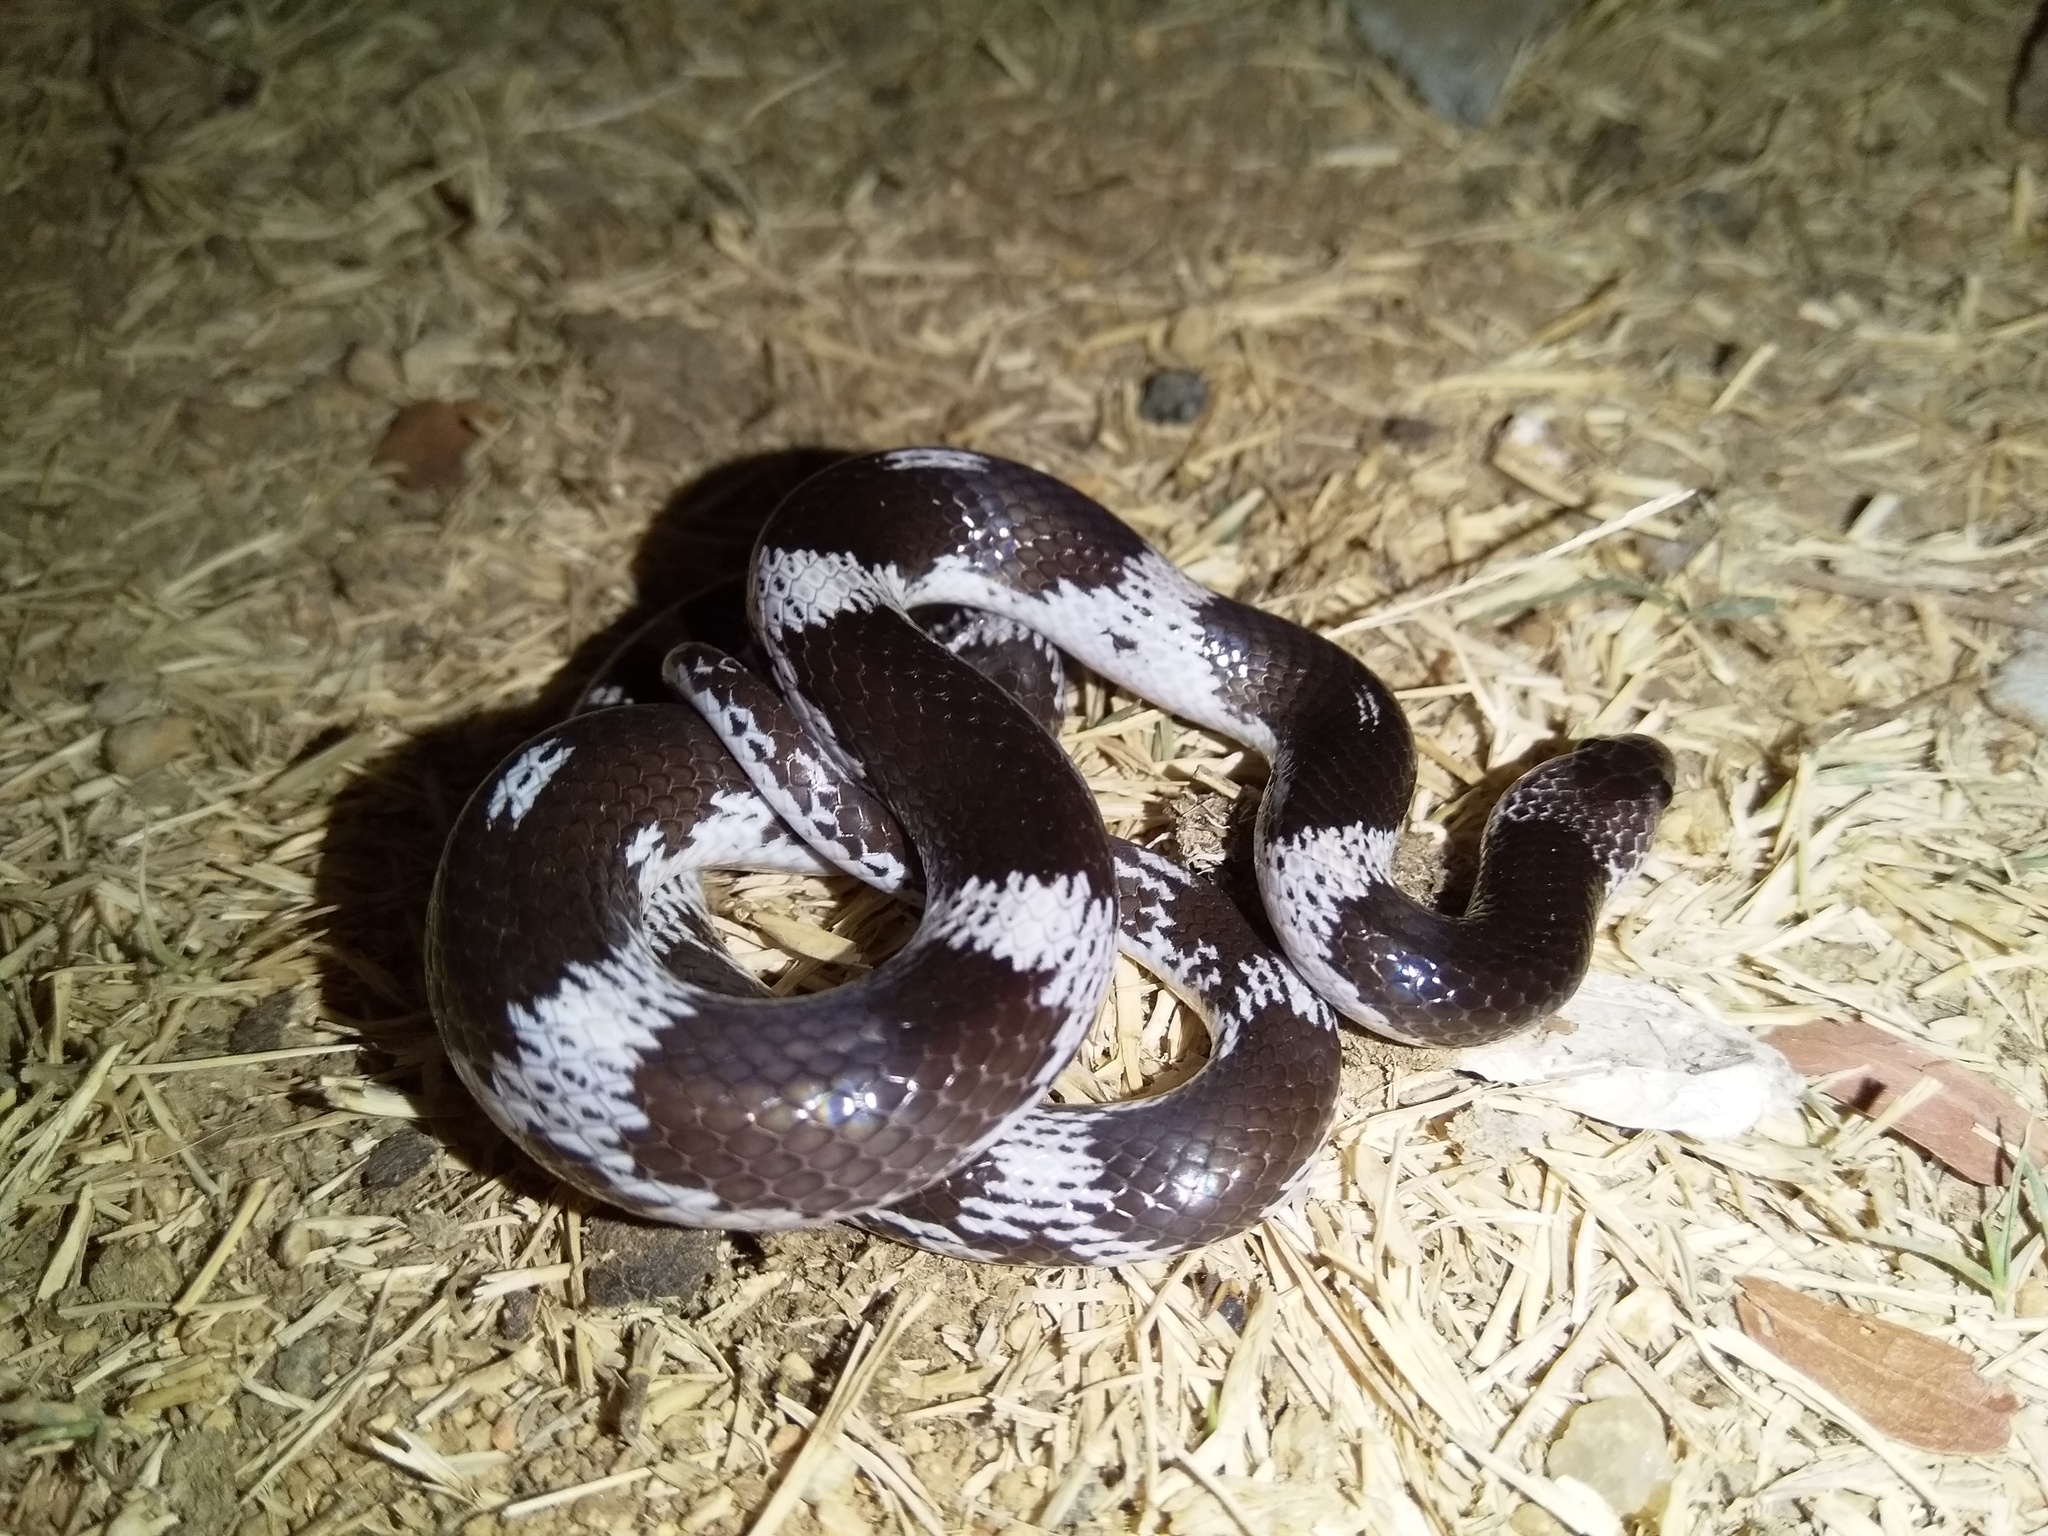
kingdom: Animalia
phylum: Chordata
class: Squamata
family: Colubridae
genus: Lycodon
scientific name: Lycodon striatus
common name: Barred wolf snake
